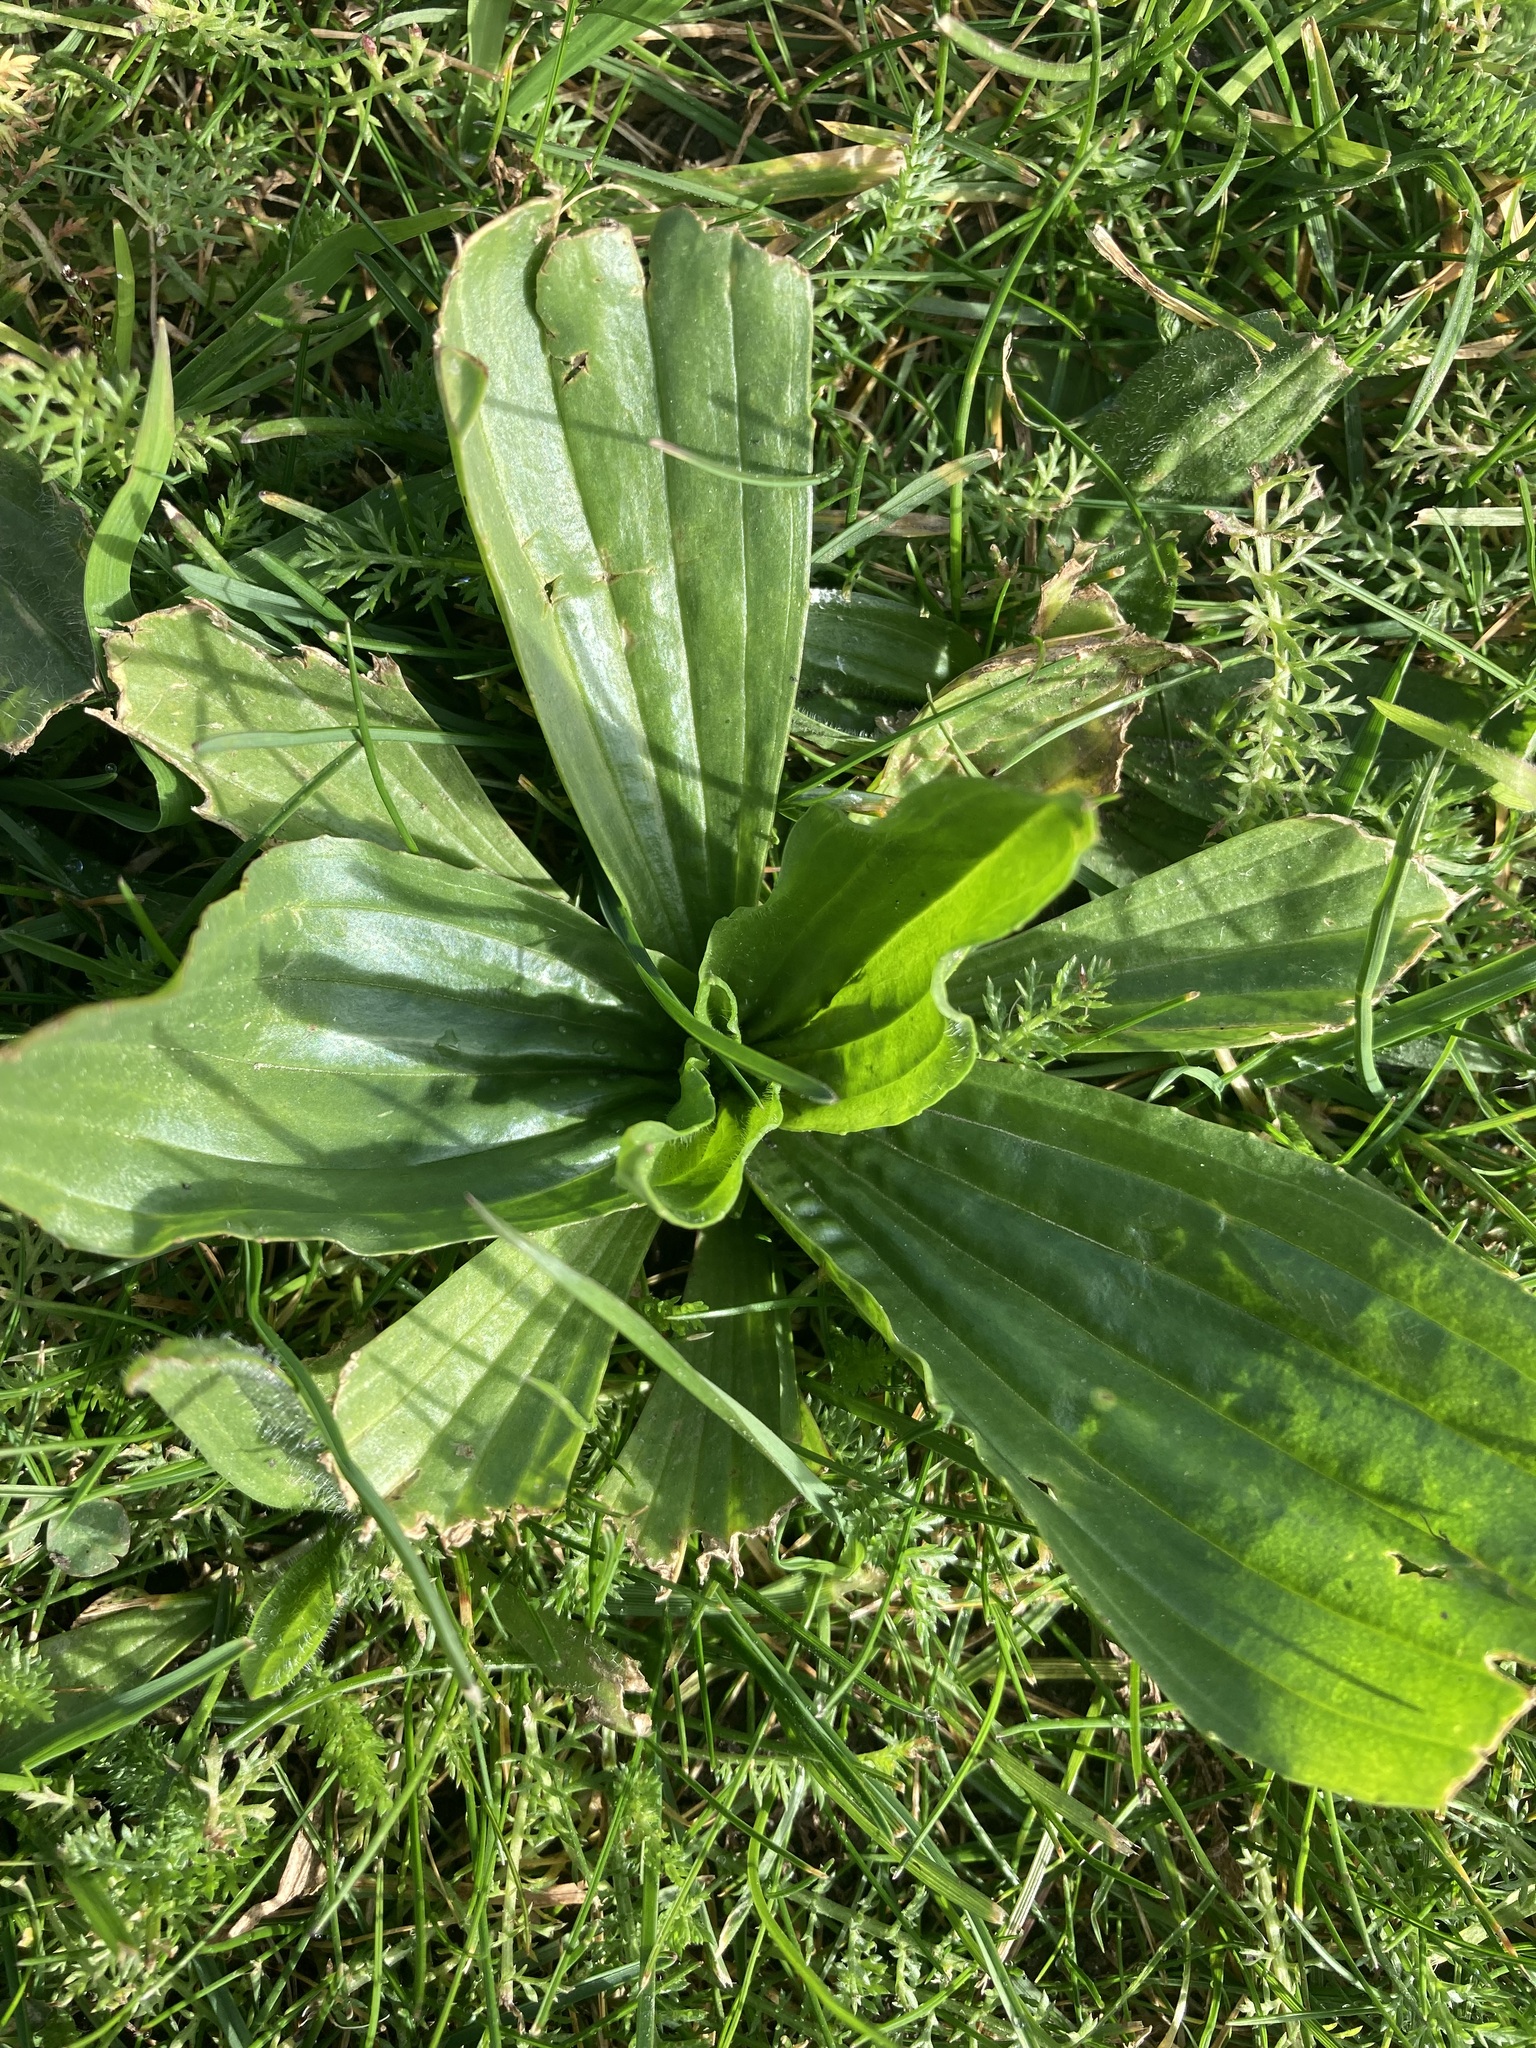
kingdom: Plantae
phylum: Tracheophyta
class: Magnoliopsida
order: Lamiales
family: Plantaginaceae
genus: Plantago
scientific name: Plantago australis
